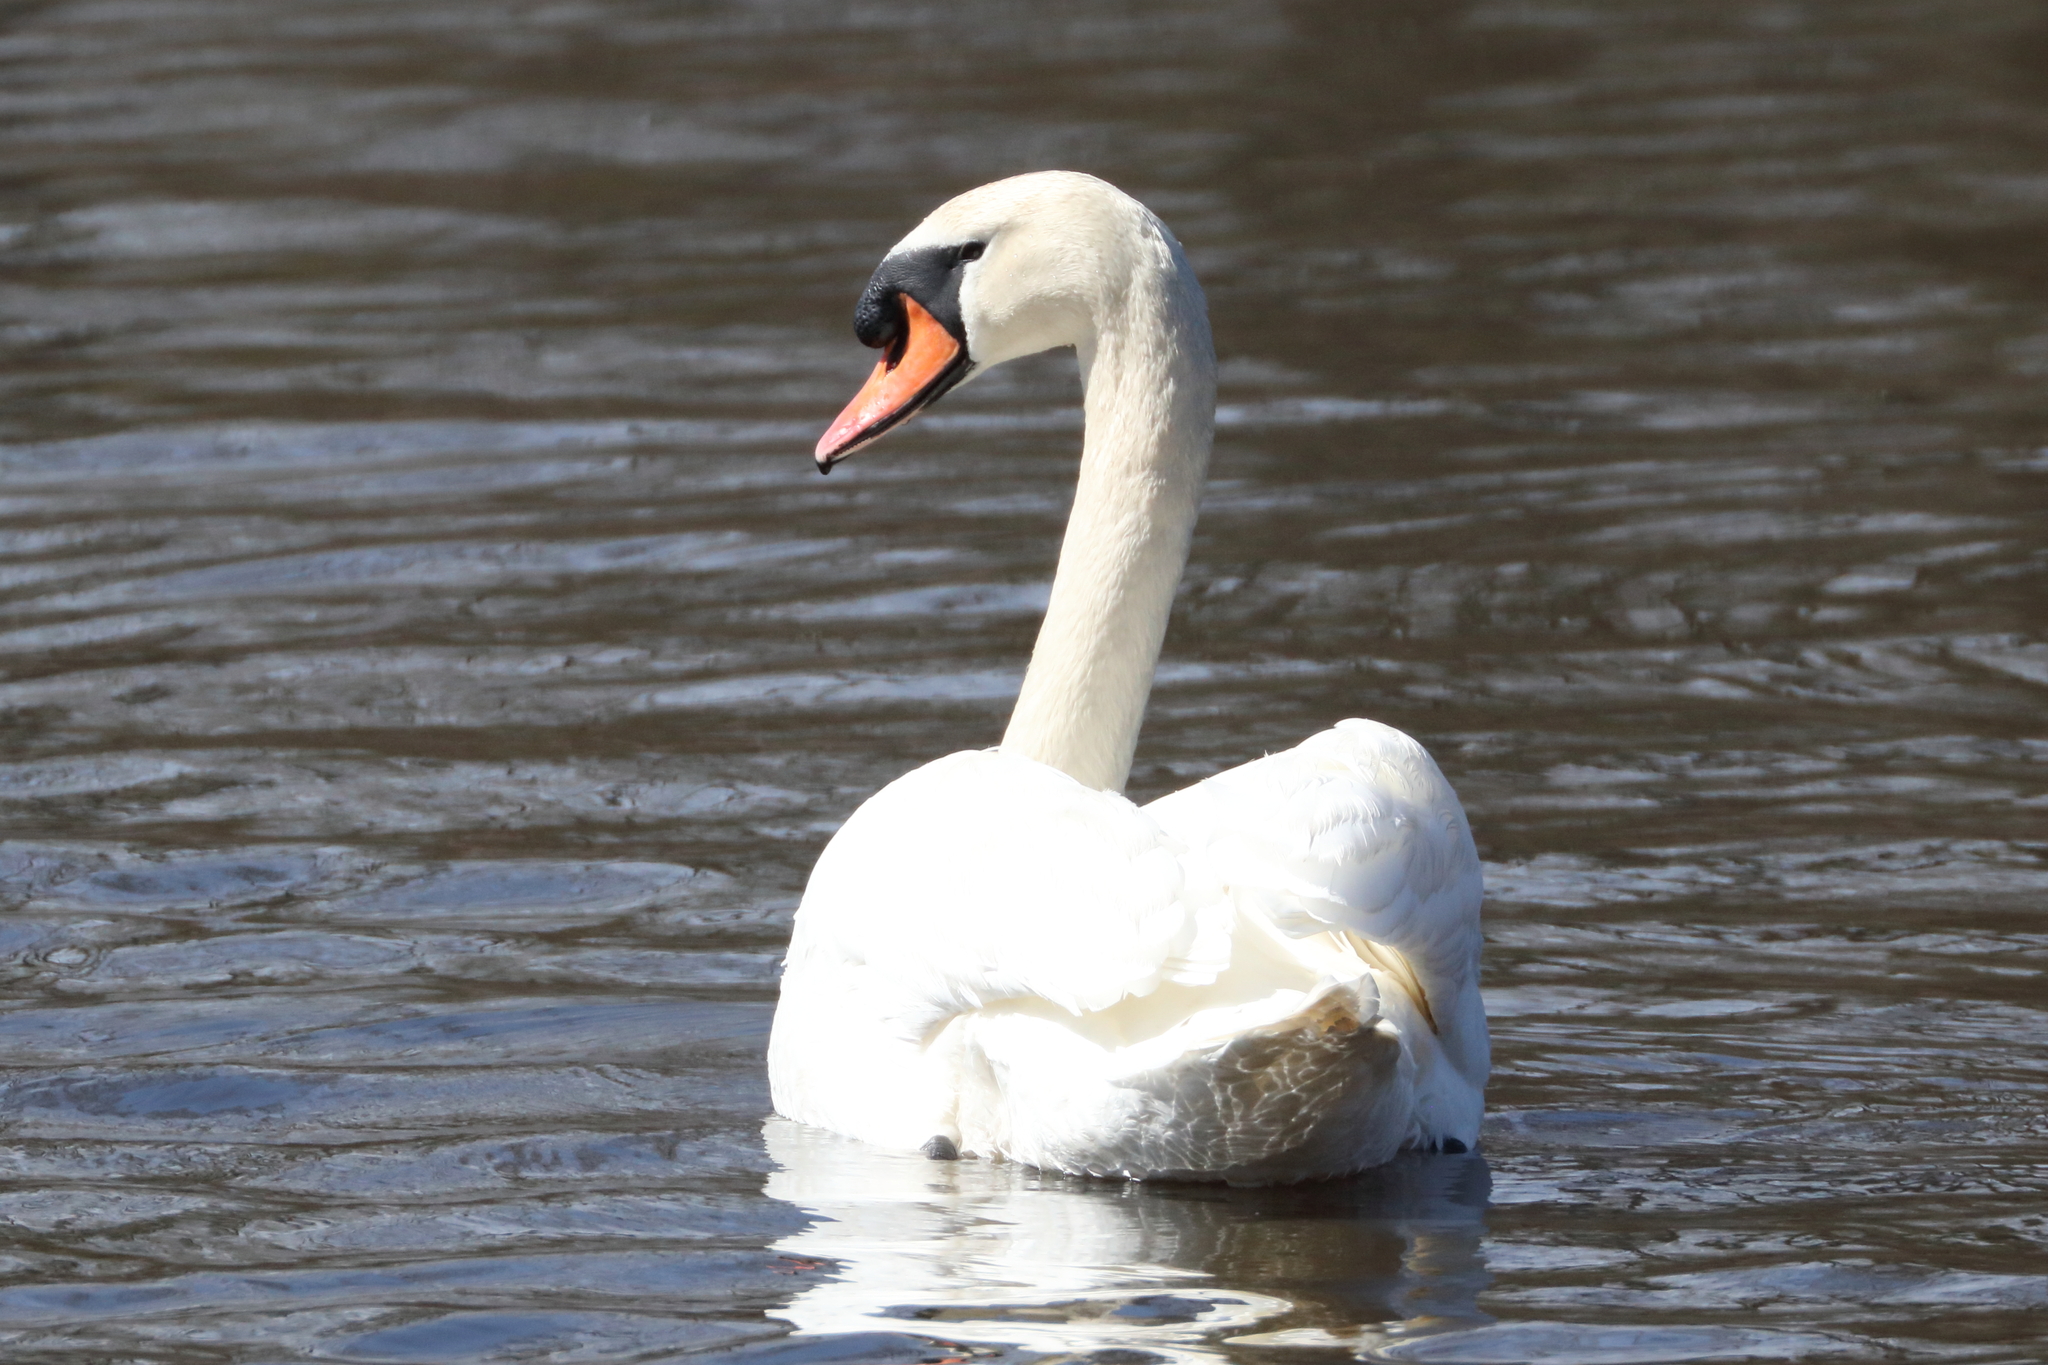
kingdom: Animalia
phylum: Chordata
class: Aves
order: Anseriformes
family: Anatidae
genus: Cygnus
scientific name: Cygnus olor
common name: Mute swan
